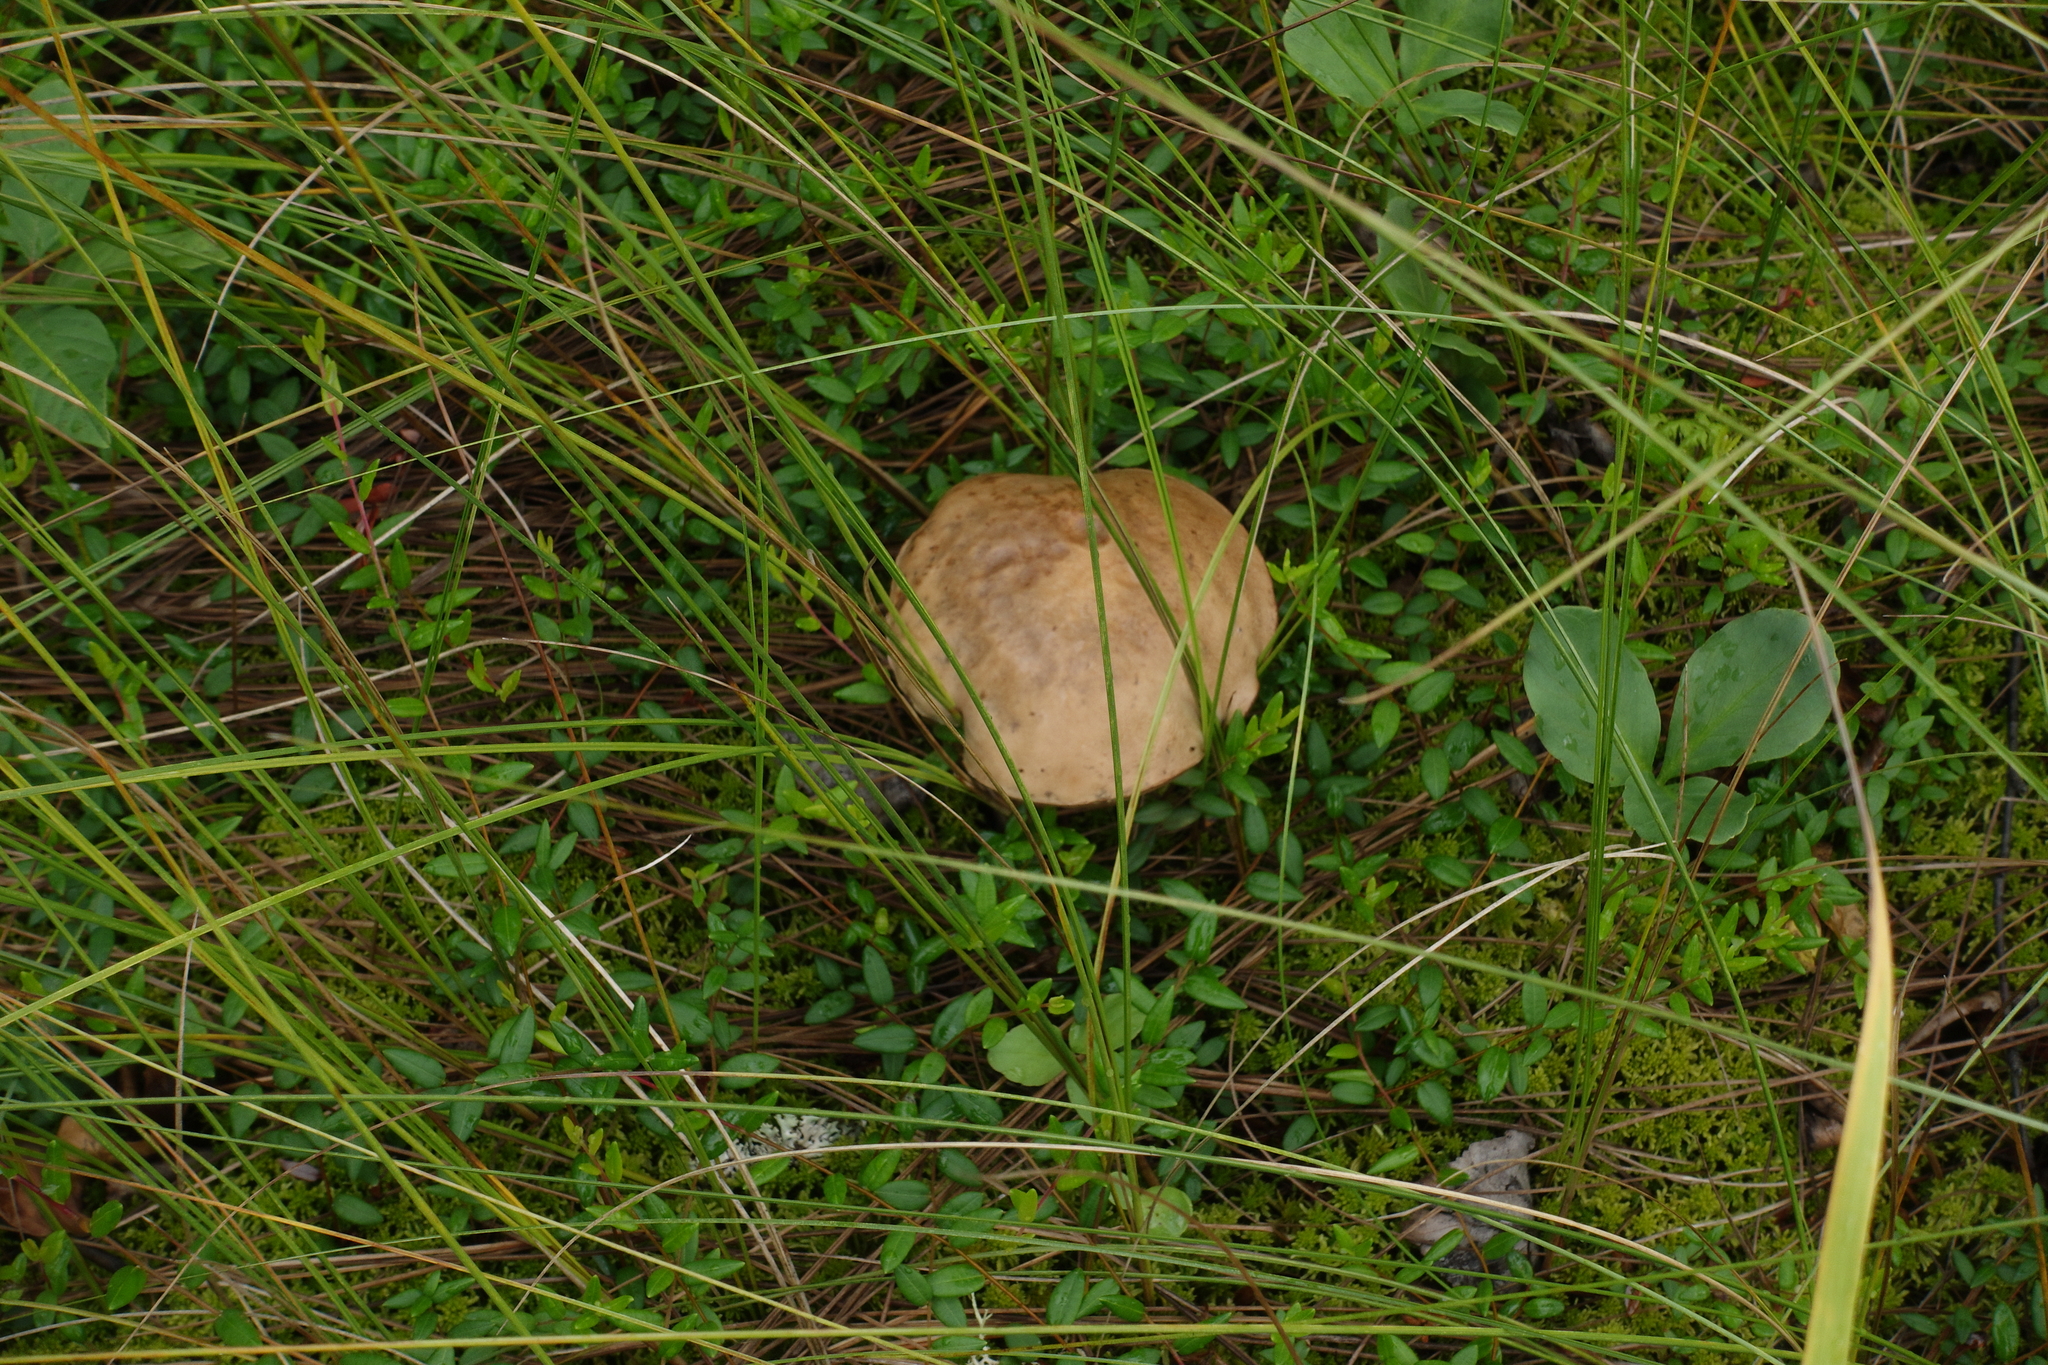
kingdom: Fungi
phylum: Basidiomycota
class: Agaricomycetes
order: Boletales
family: Boletaceae
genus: Leccinum
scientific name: Leccinum holopus
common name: Ghost bolete
